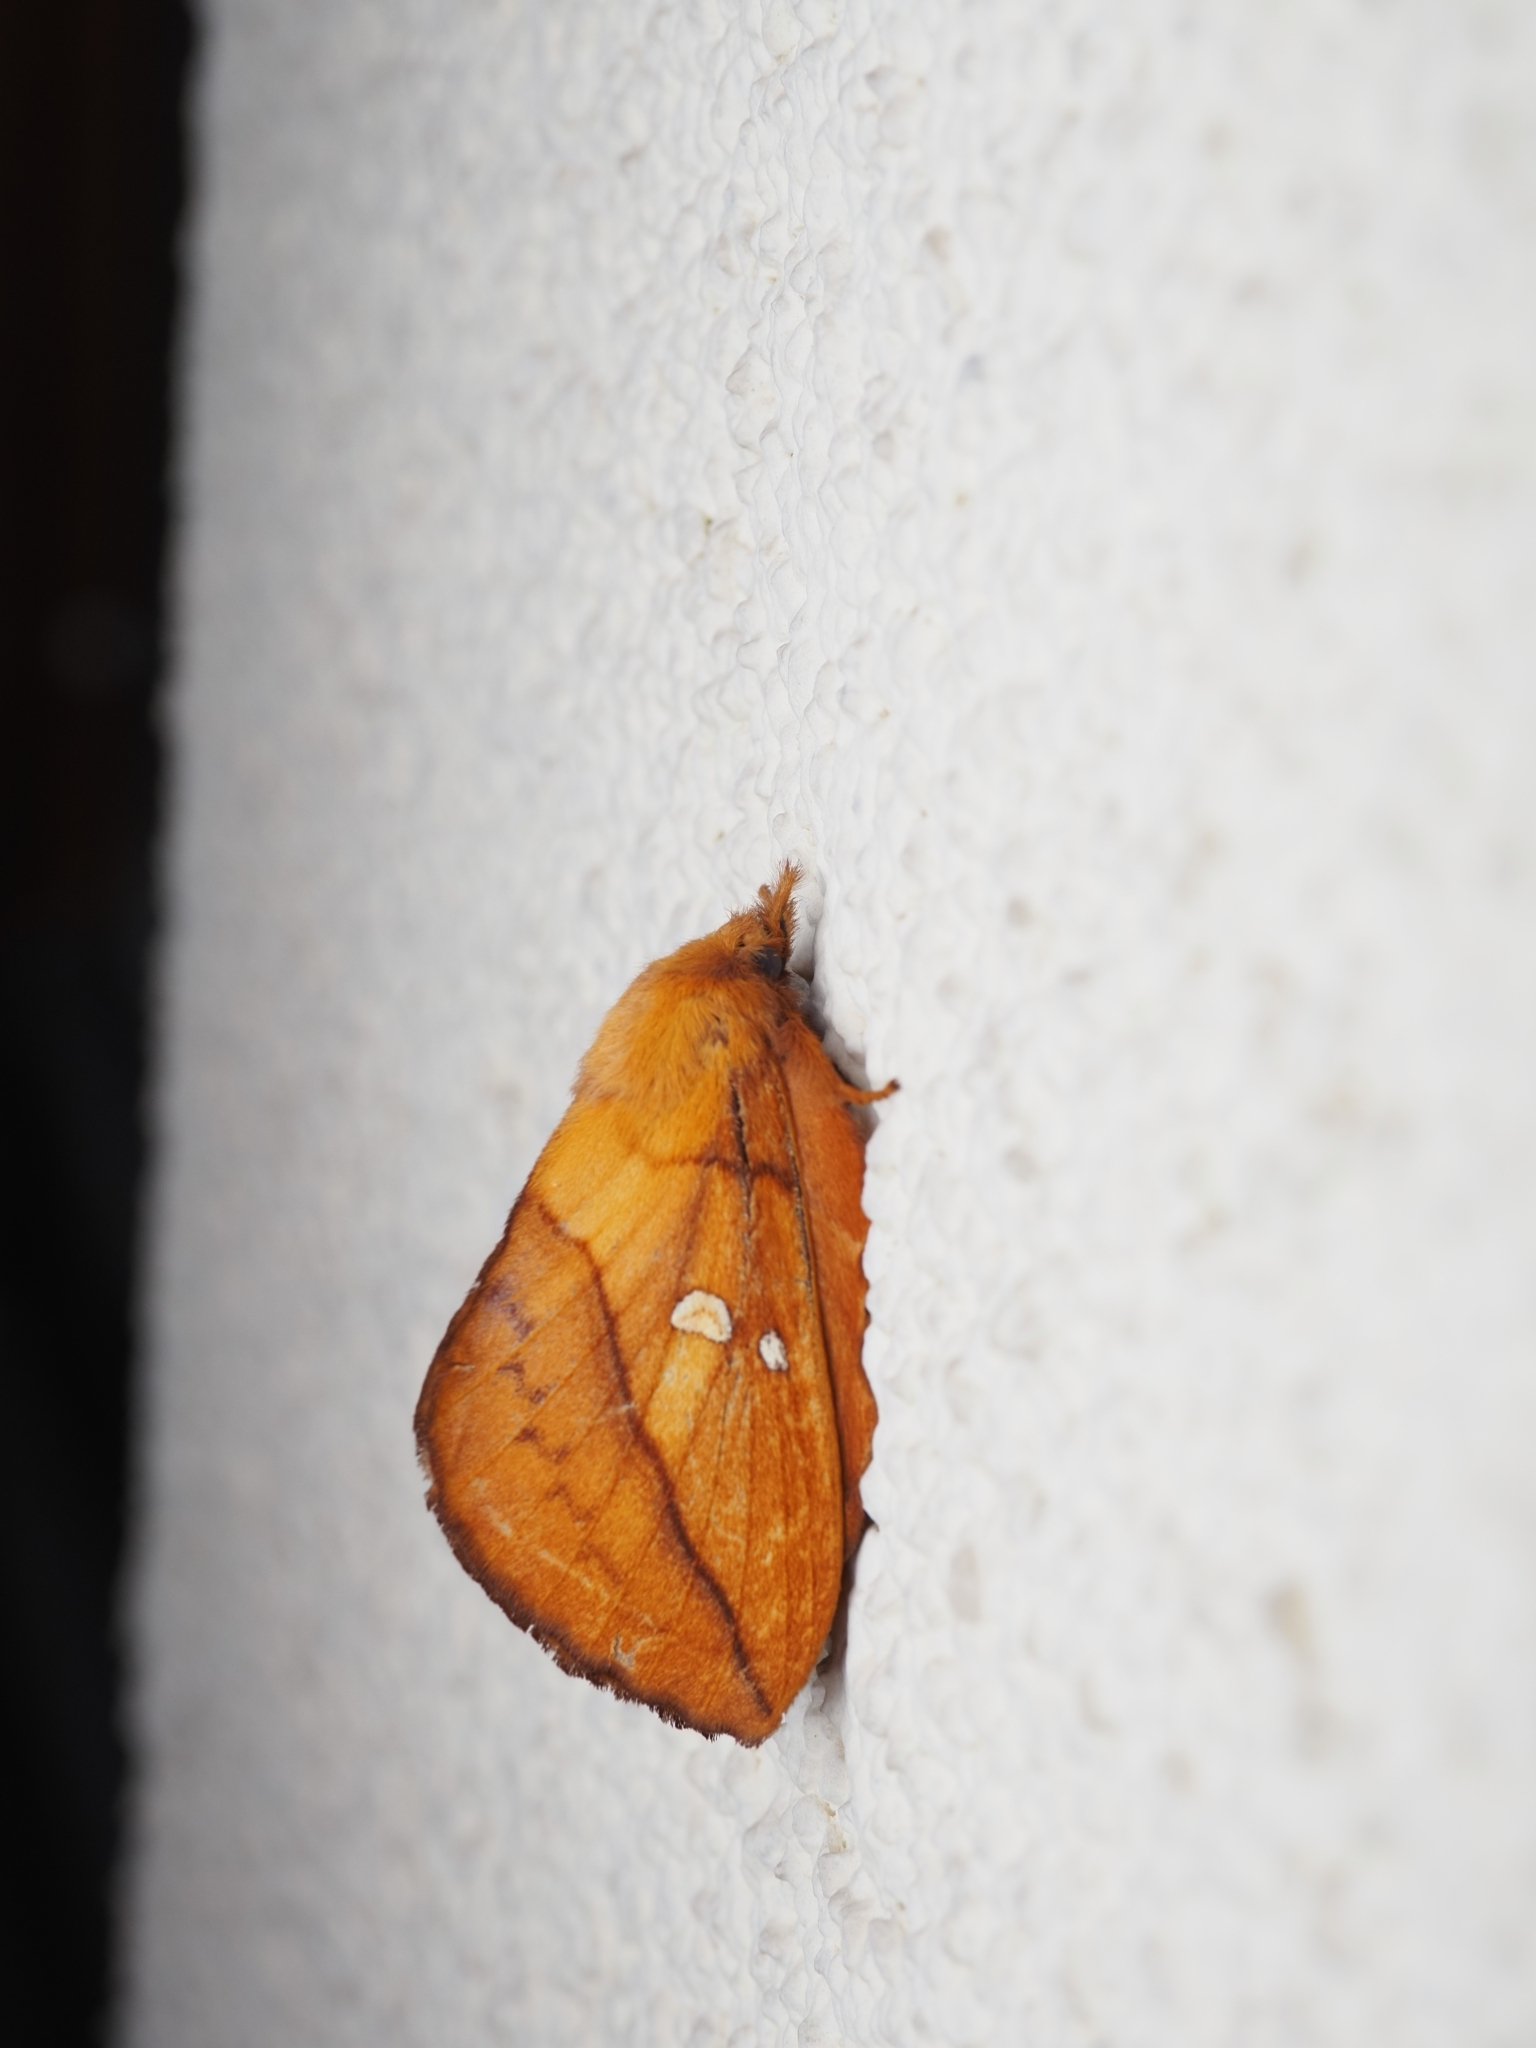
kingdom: Animalia
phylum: Arthropoda
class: Insecta
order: Lepidoptera
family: Lasiocampidae
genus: Euthrix
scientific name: Euthrix potatoria
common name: Drinker
